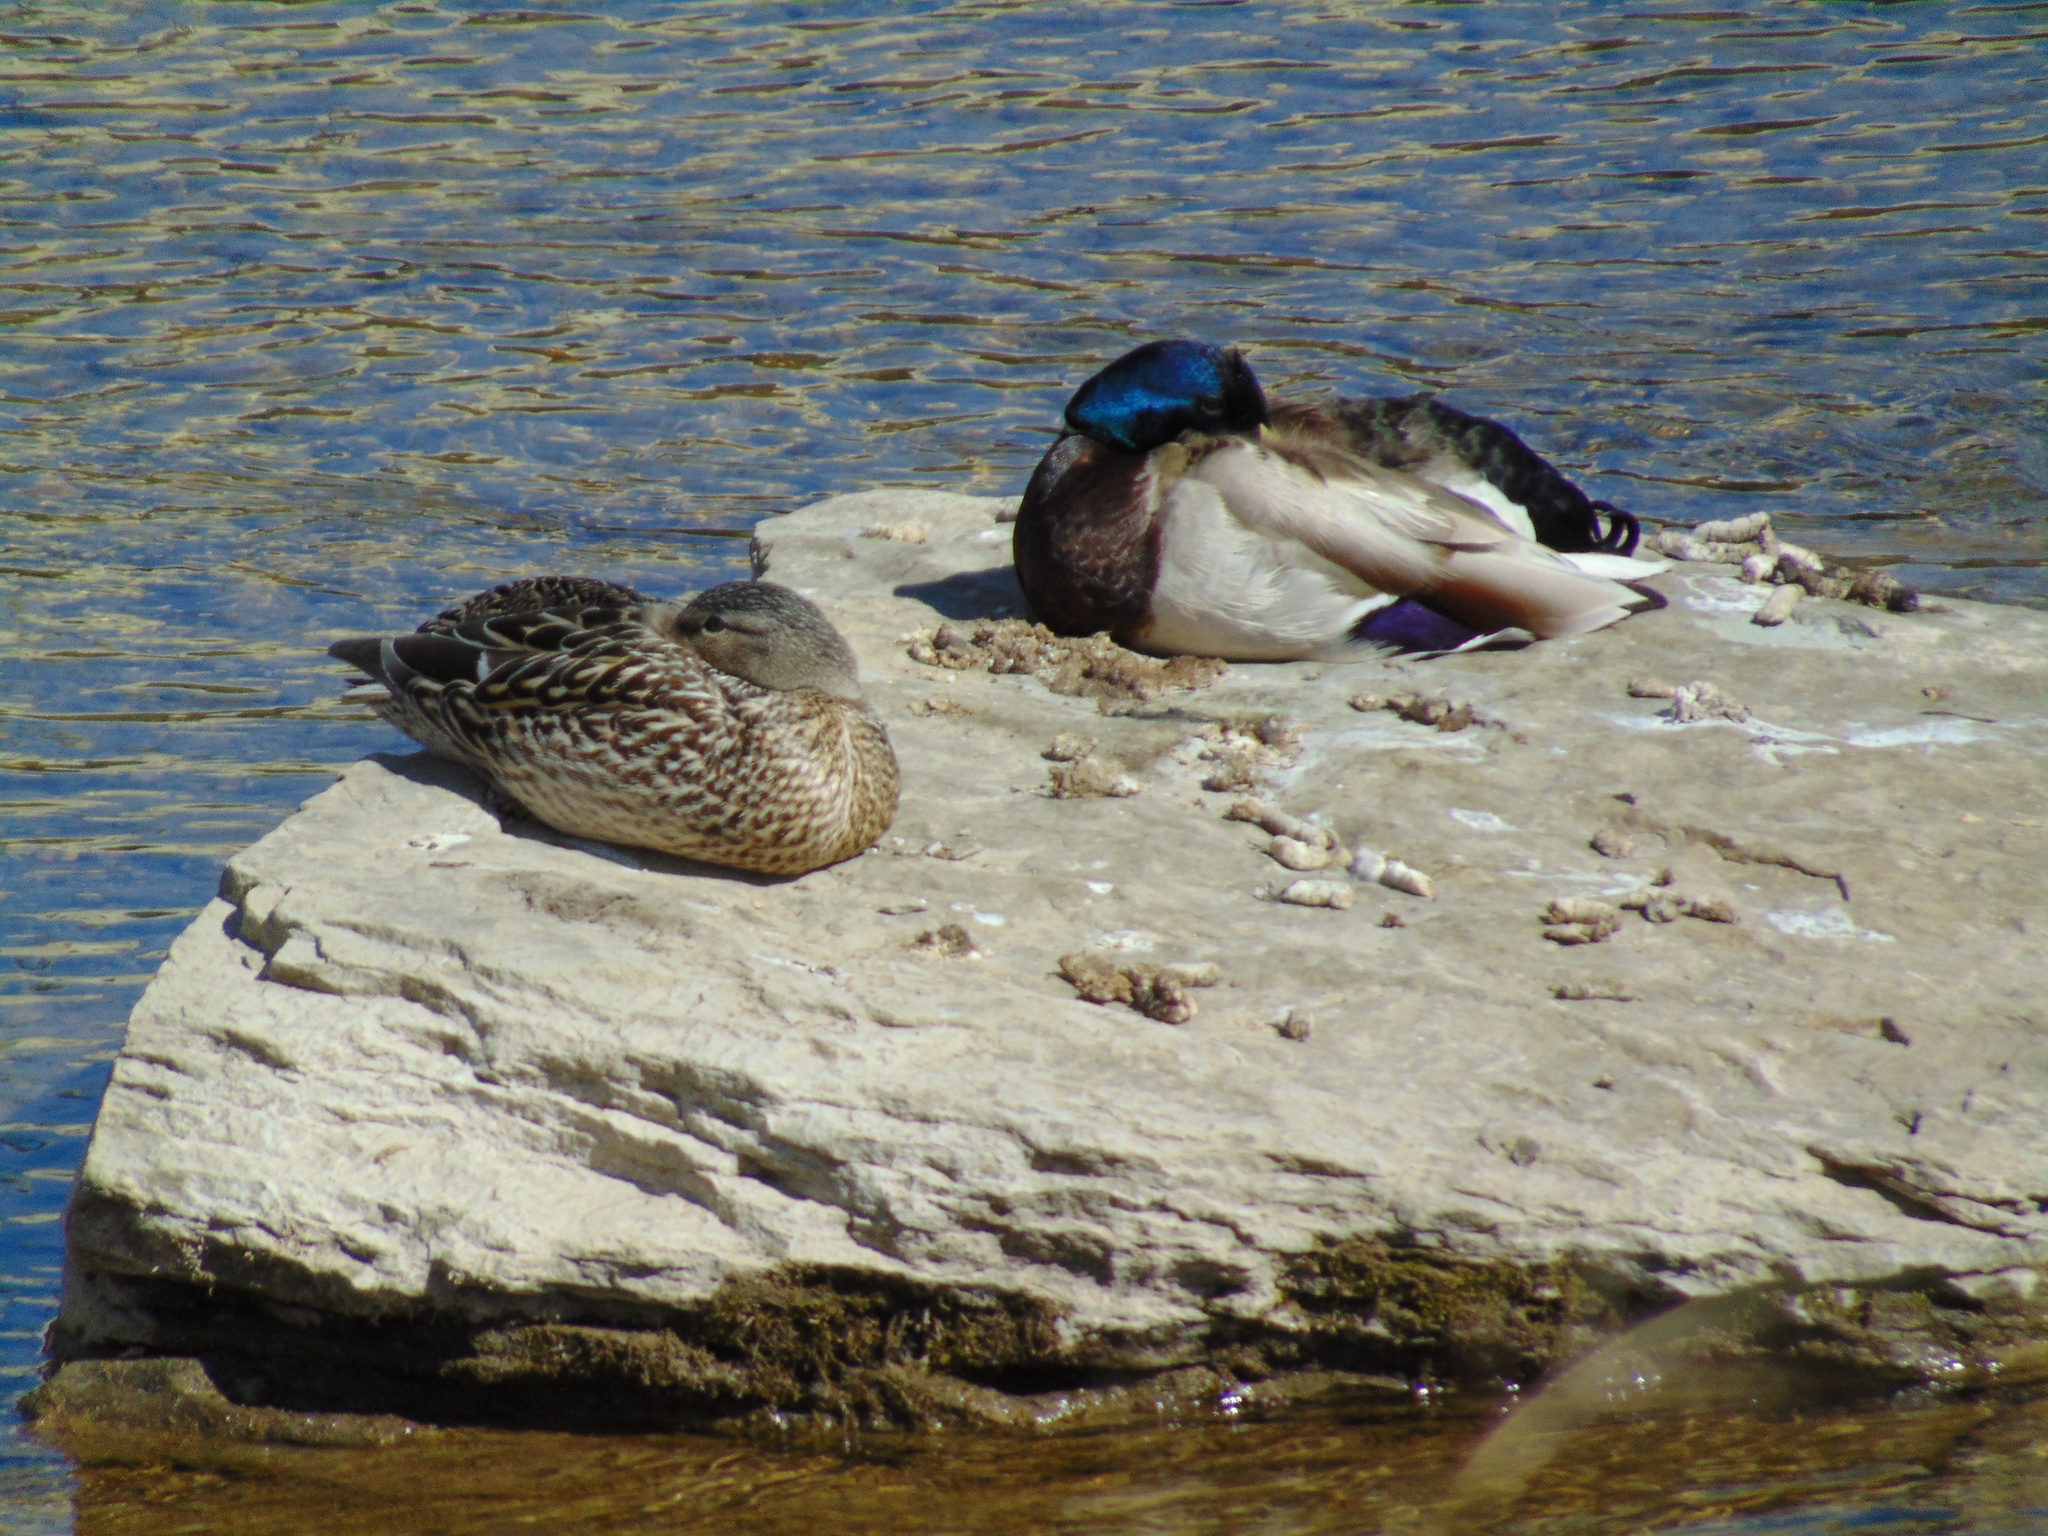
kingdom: Animalia
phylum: Chordata
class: Aves
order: Anseriformes
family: Anatidae
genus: Anas
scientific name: Anas platyrhynchos
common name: Mallard
